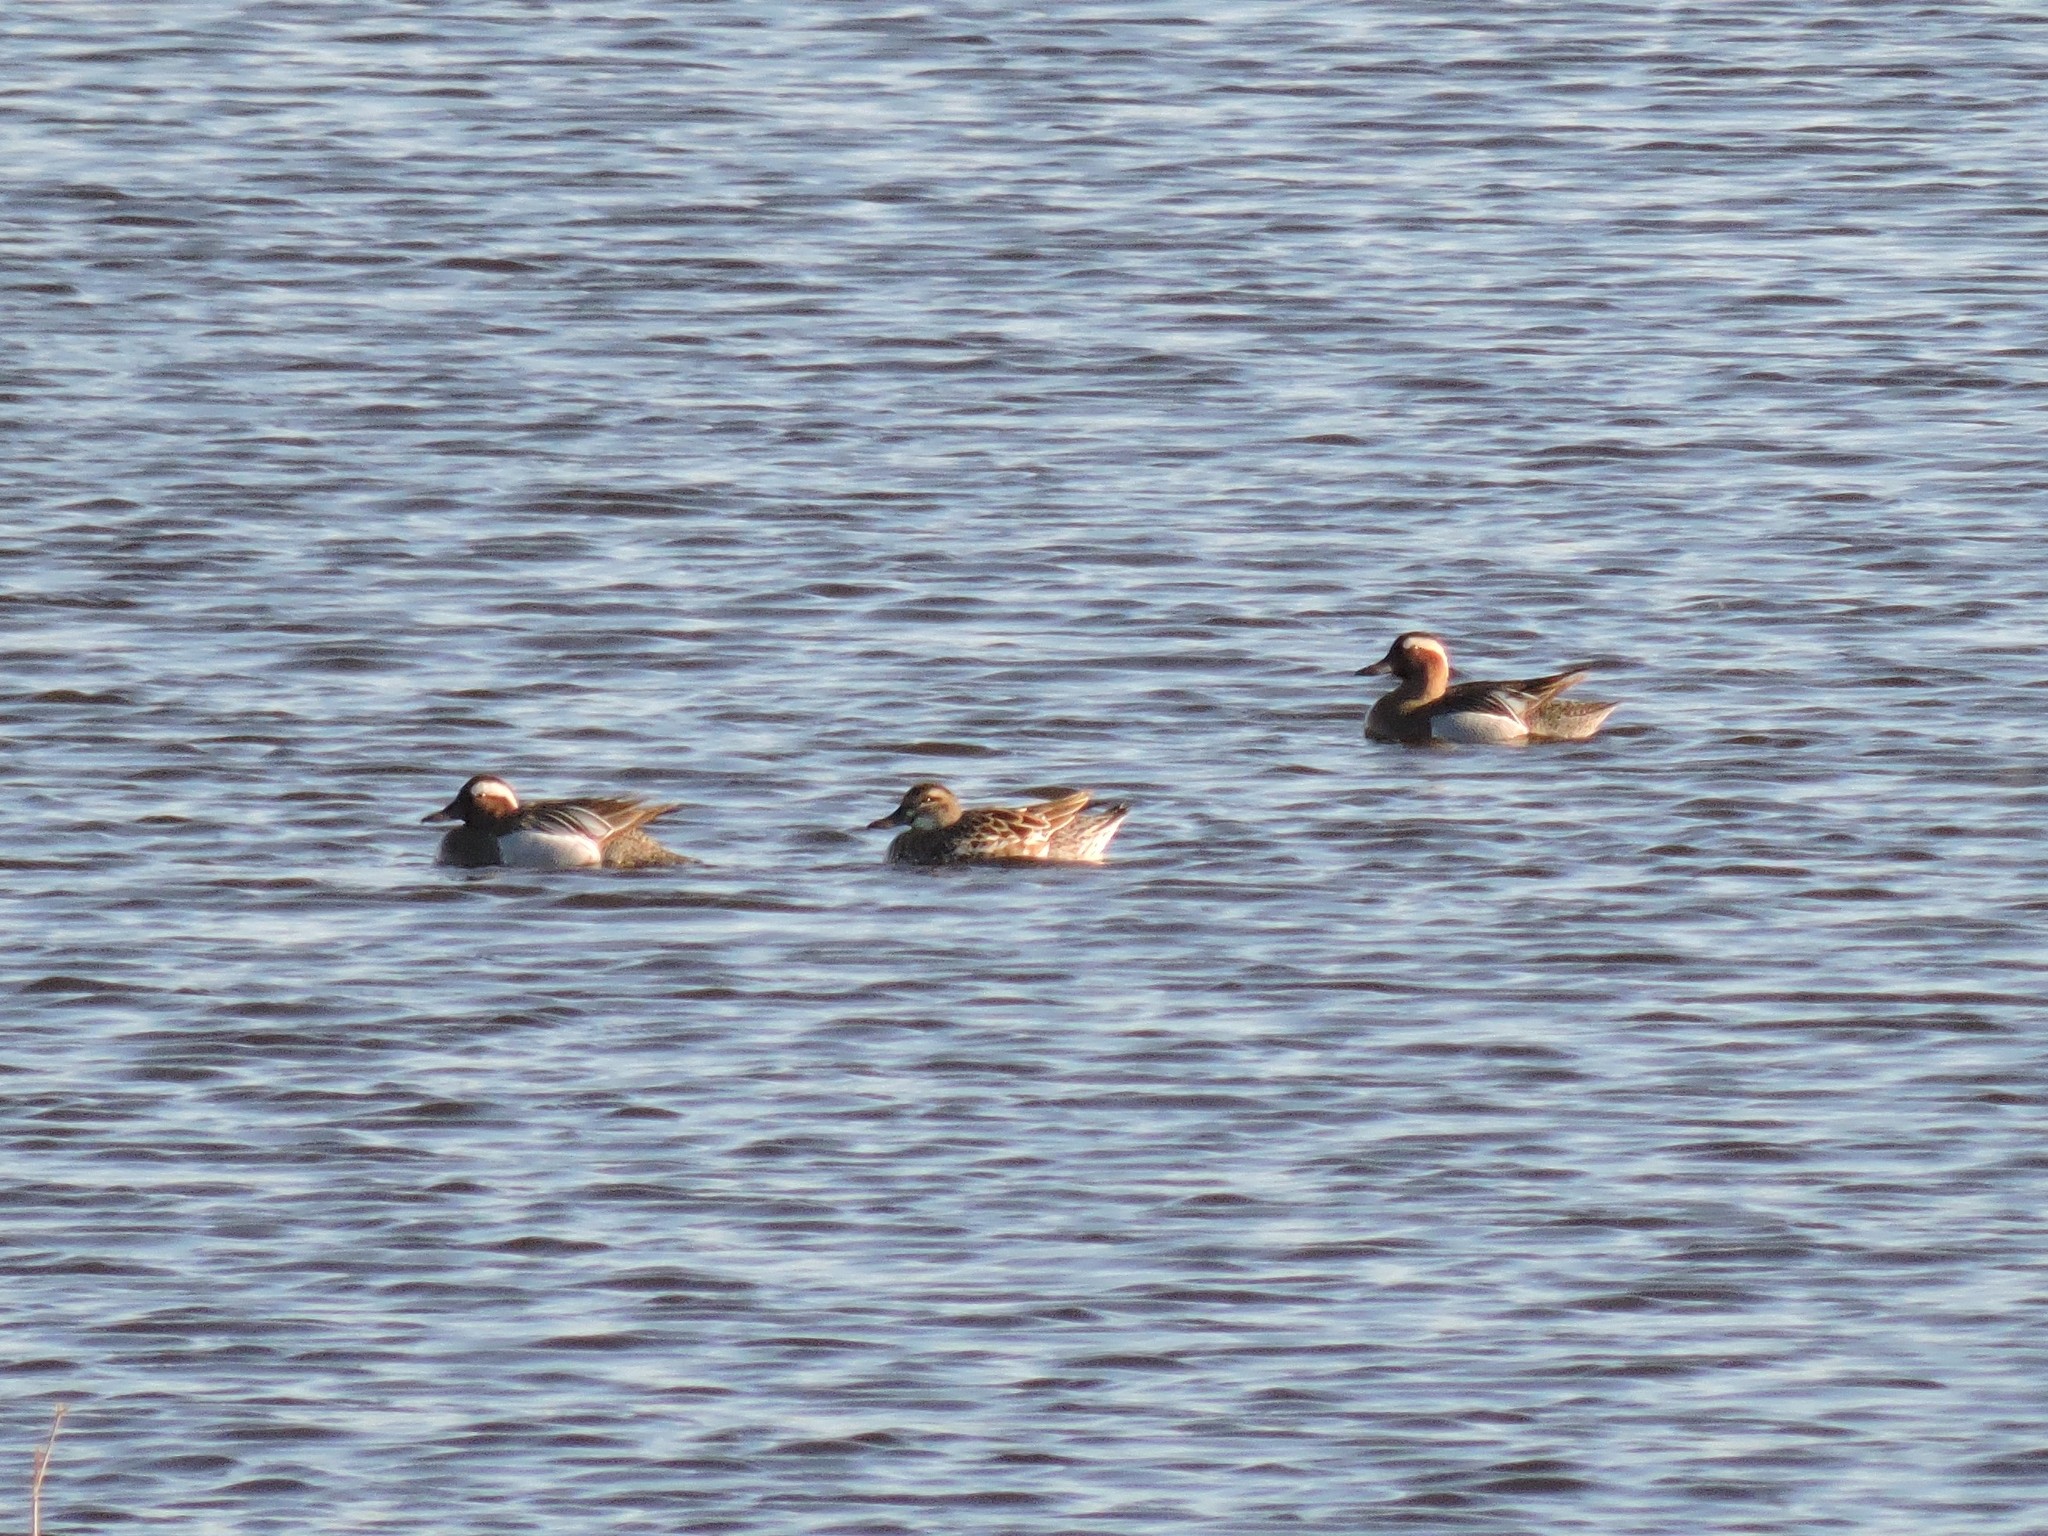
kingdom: Animalia
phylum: Chordata
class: Aves
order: Anseriformes
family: Anatidae
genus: Spatula
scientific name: Spatula querquedula
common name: Garganey
